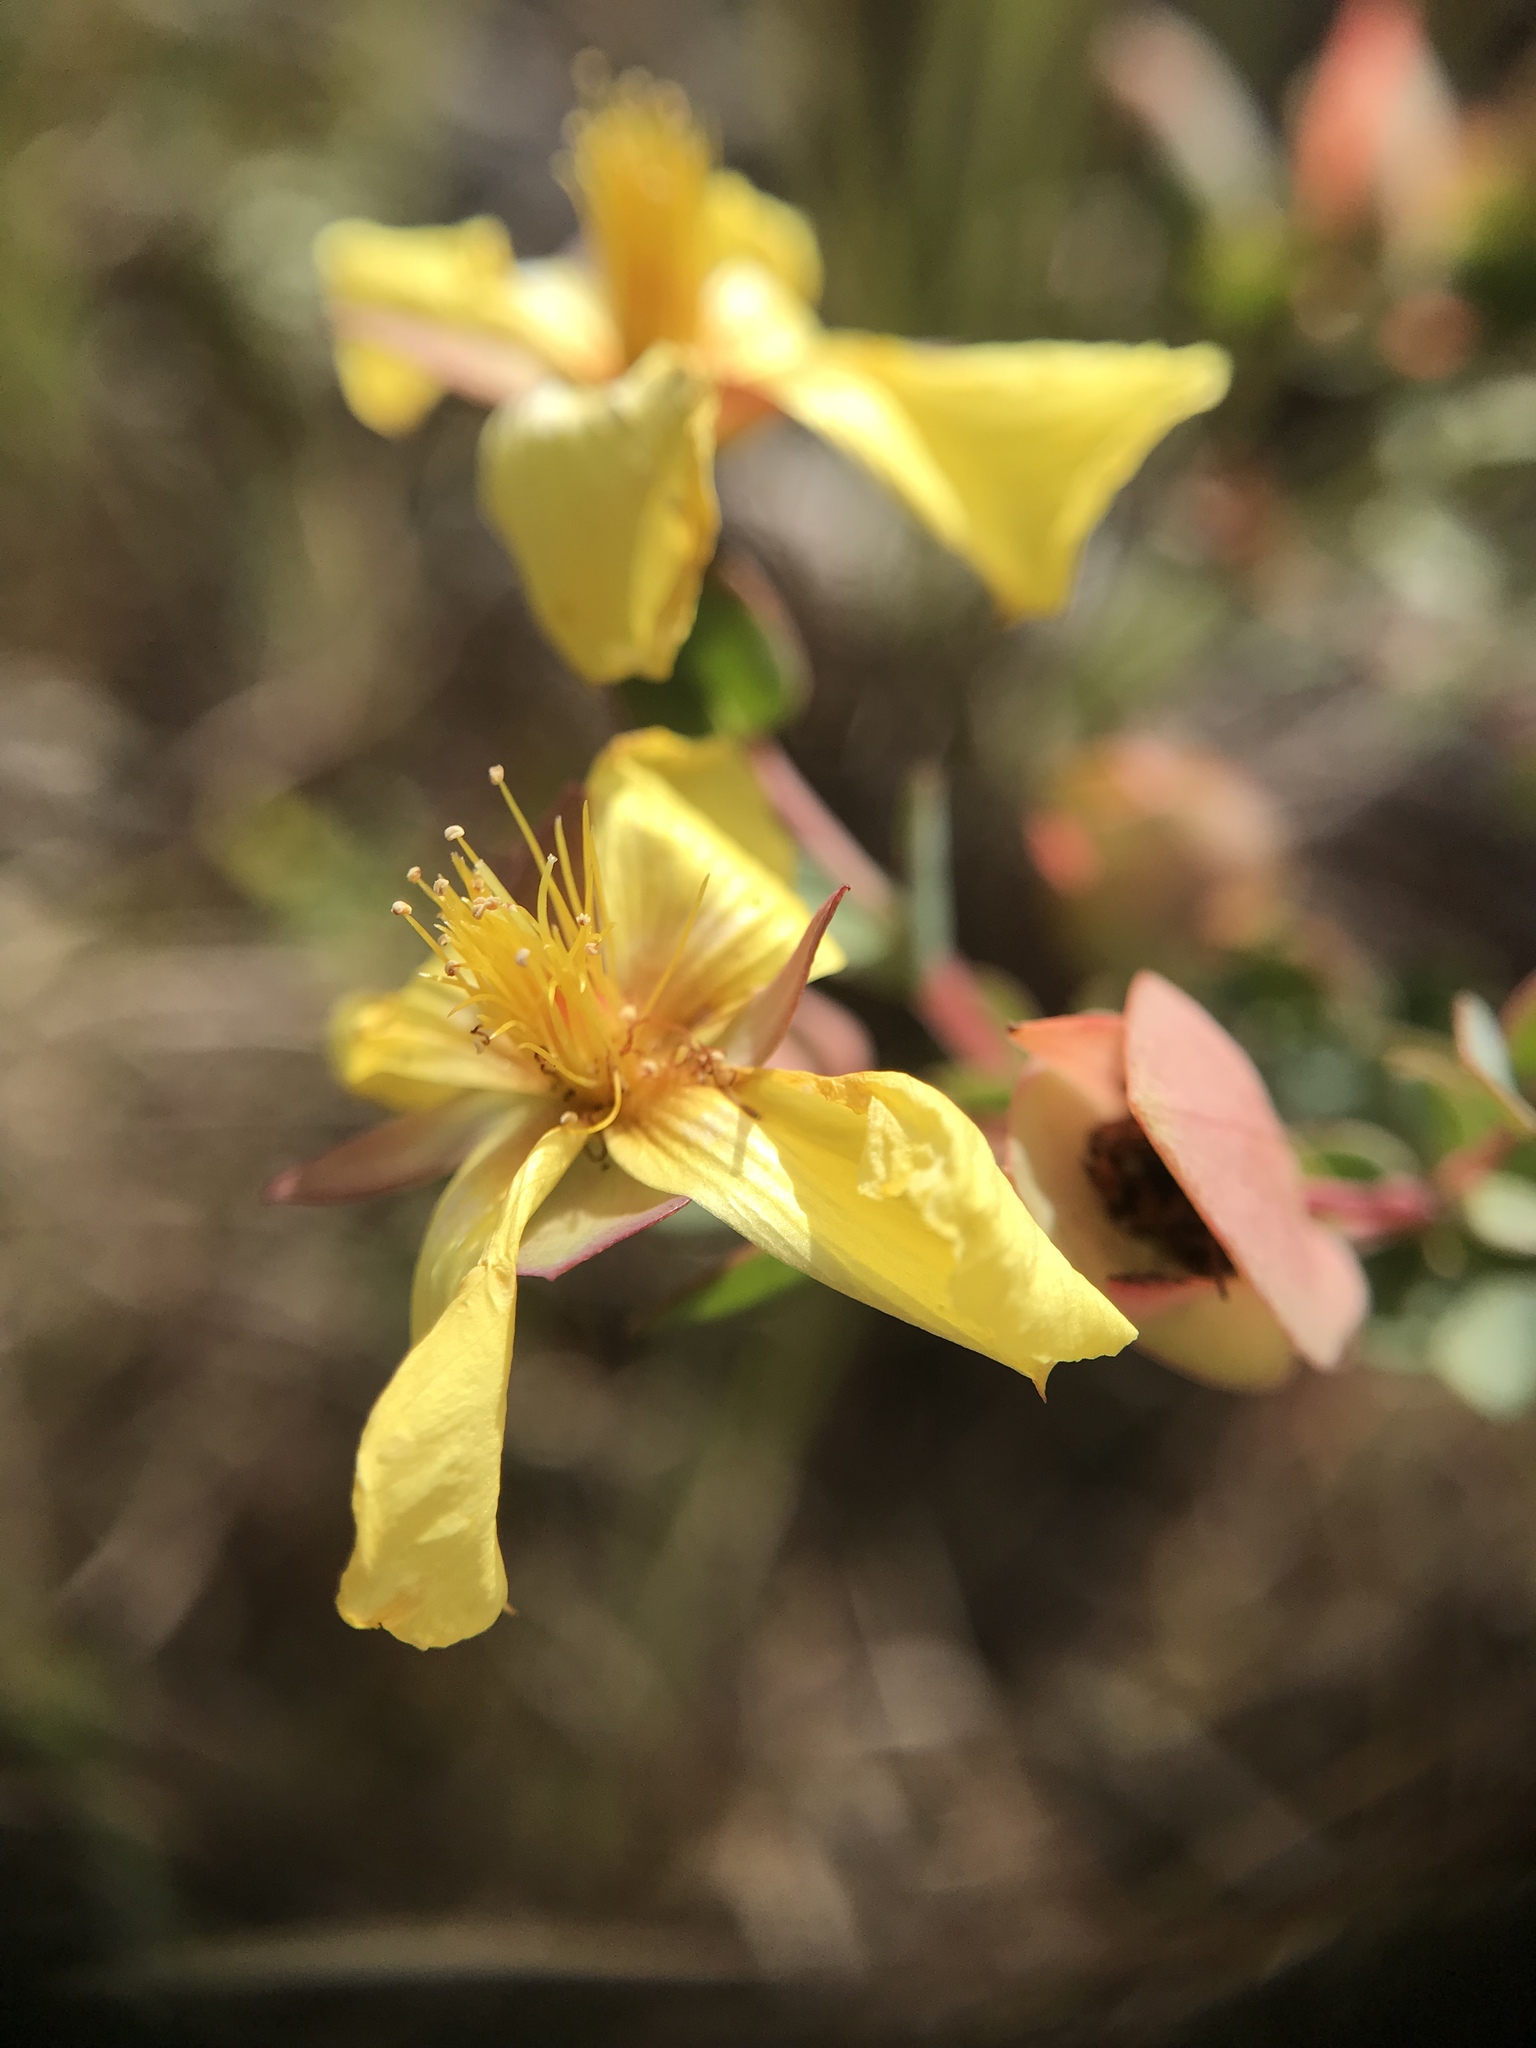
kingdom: Plantae
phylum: Tracheophyta
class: Magnoliopsida
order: Malpighiales
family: Hypericaceae
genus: Hypericum
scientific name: Hypericum tetrapetalum
